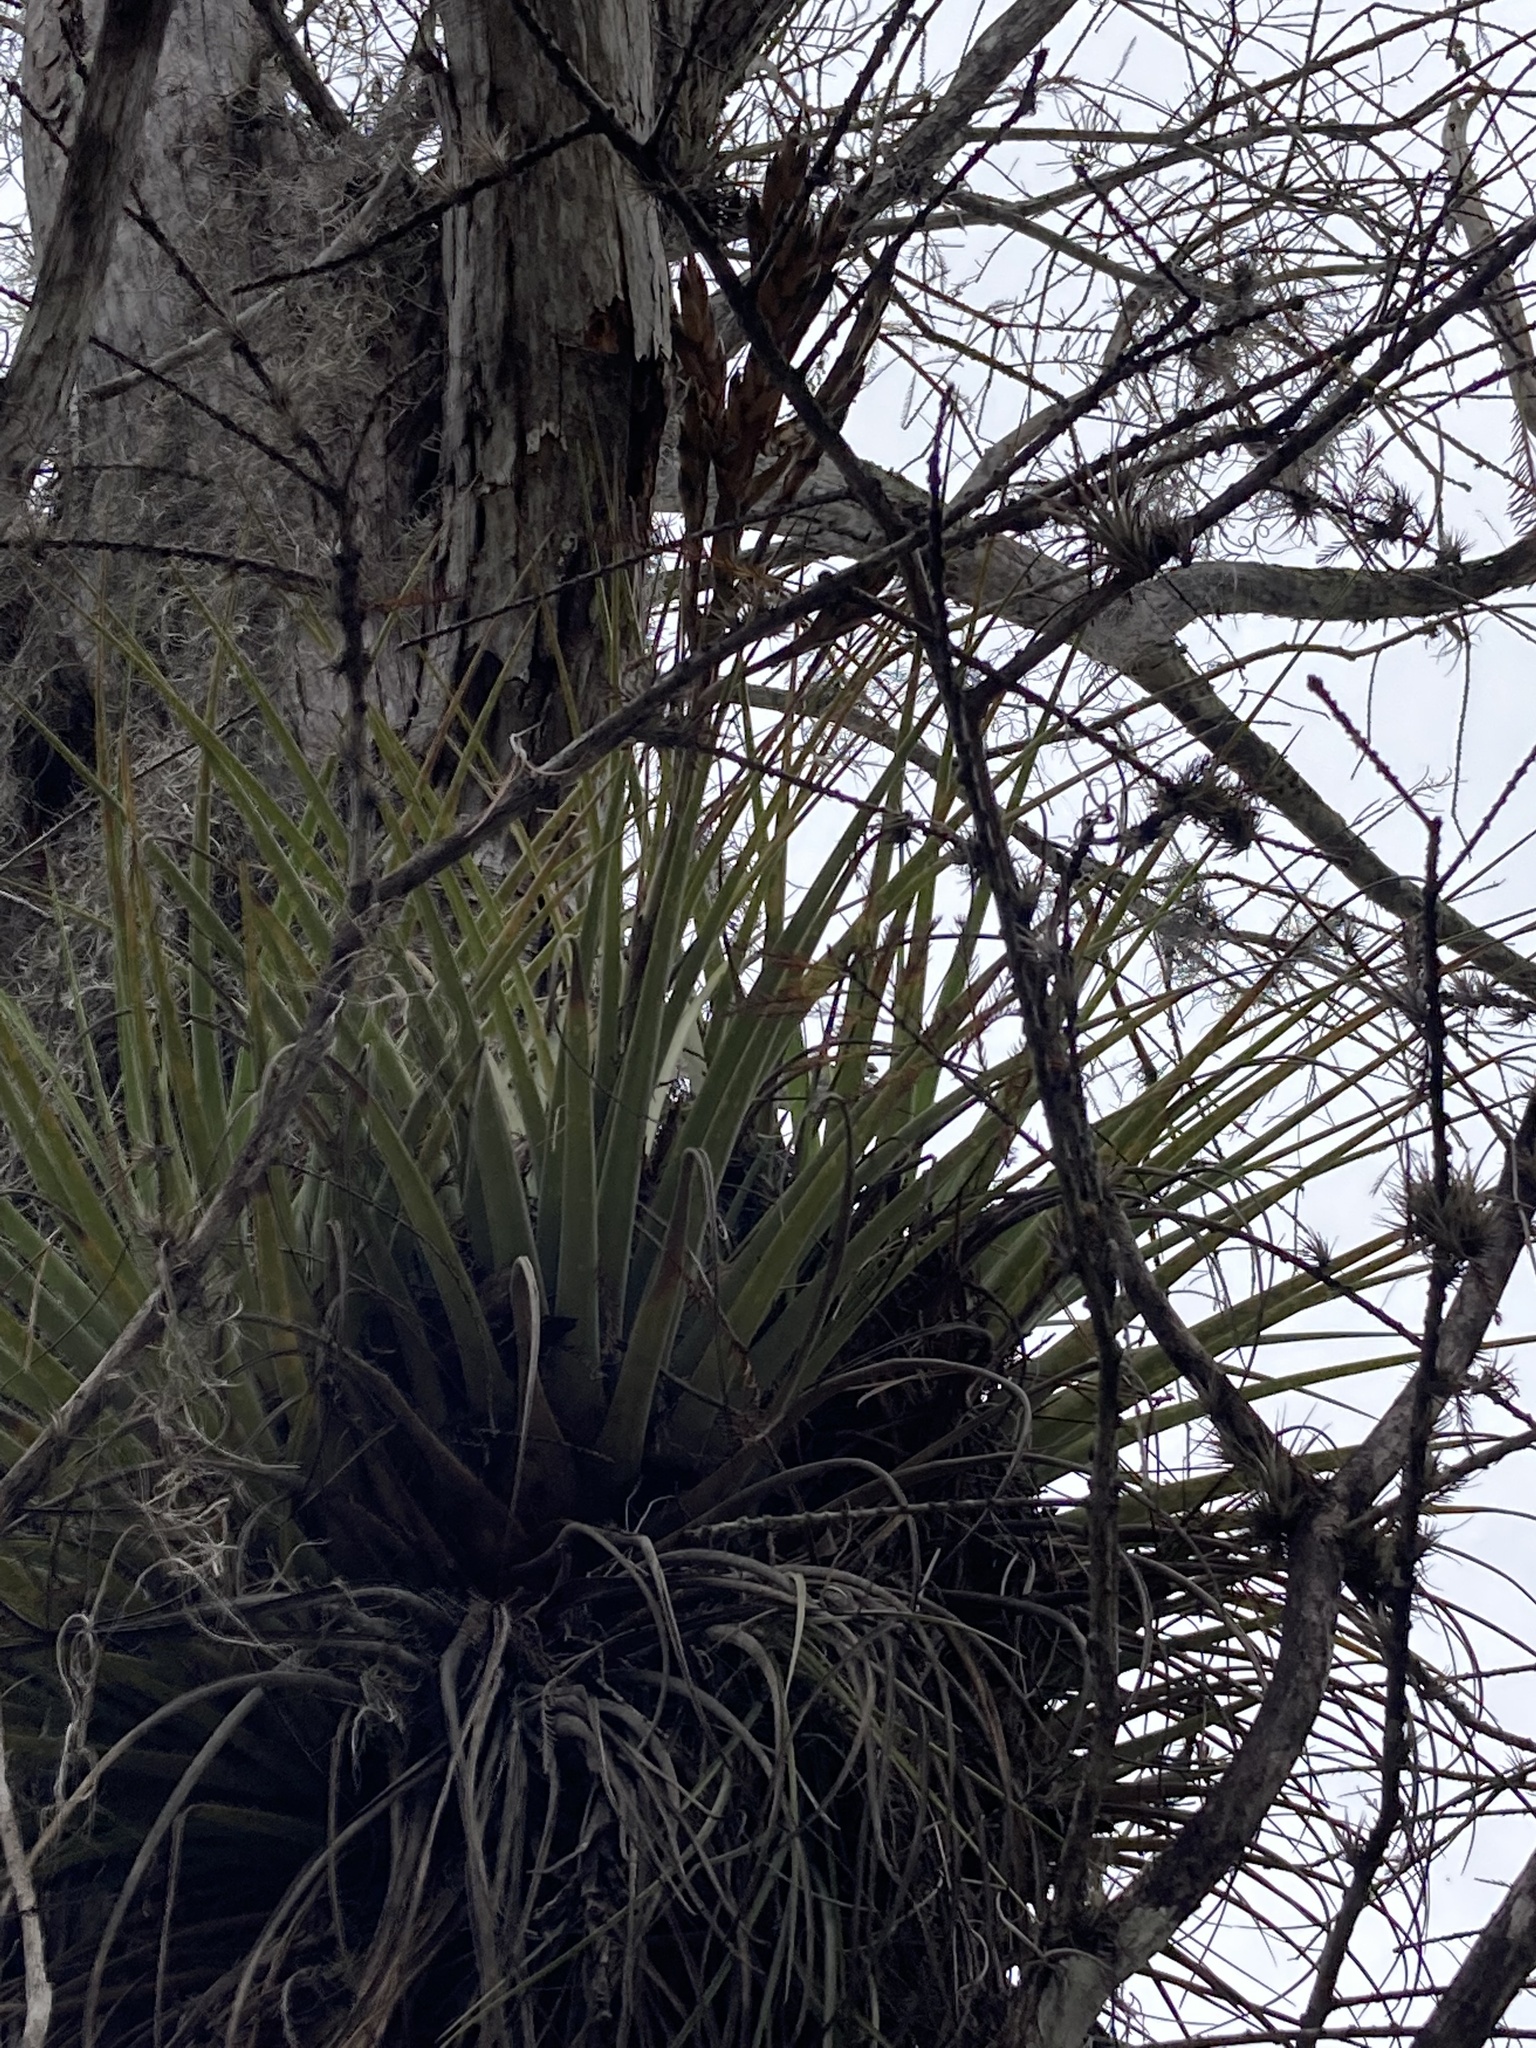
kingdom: Plantae
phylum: Tracheophyta
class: Liliopsida
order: Poales
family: Bromeliaceae
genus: Tillandsia
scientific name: Tillandsia fasciculata
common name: Giant airplant
